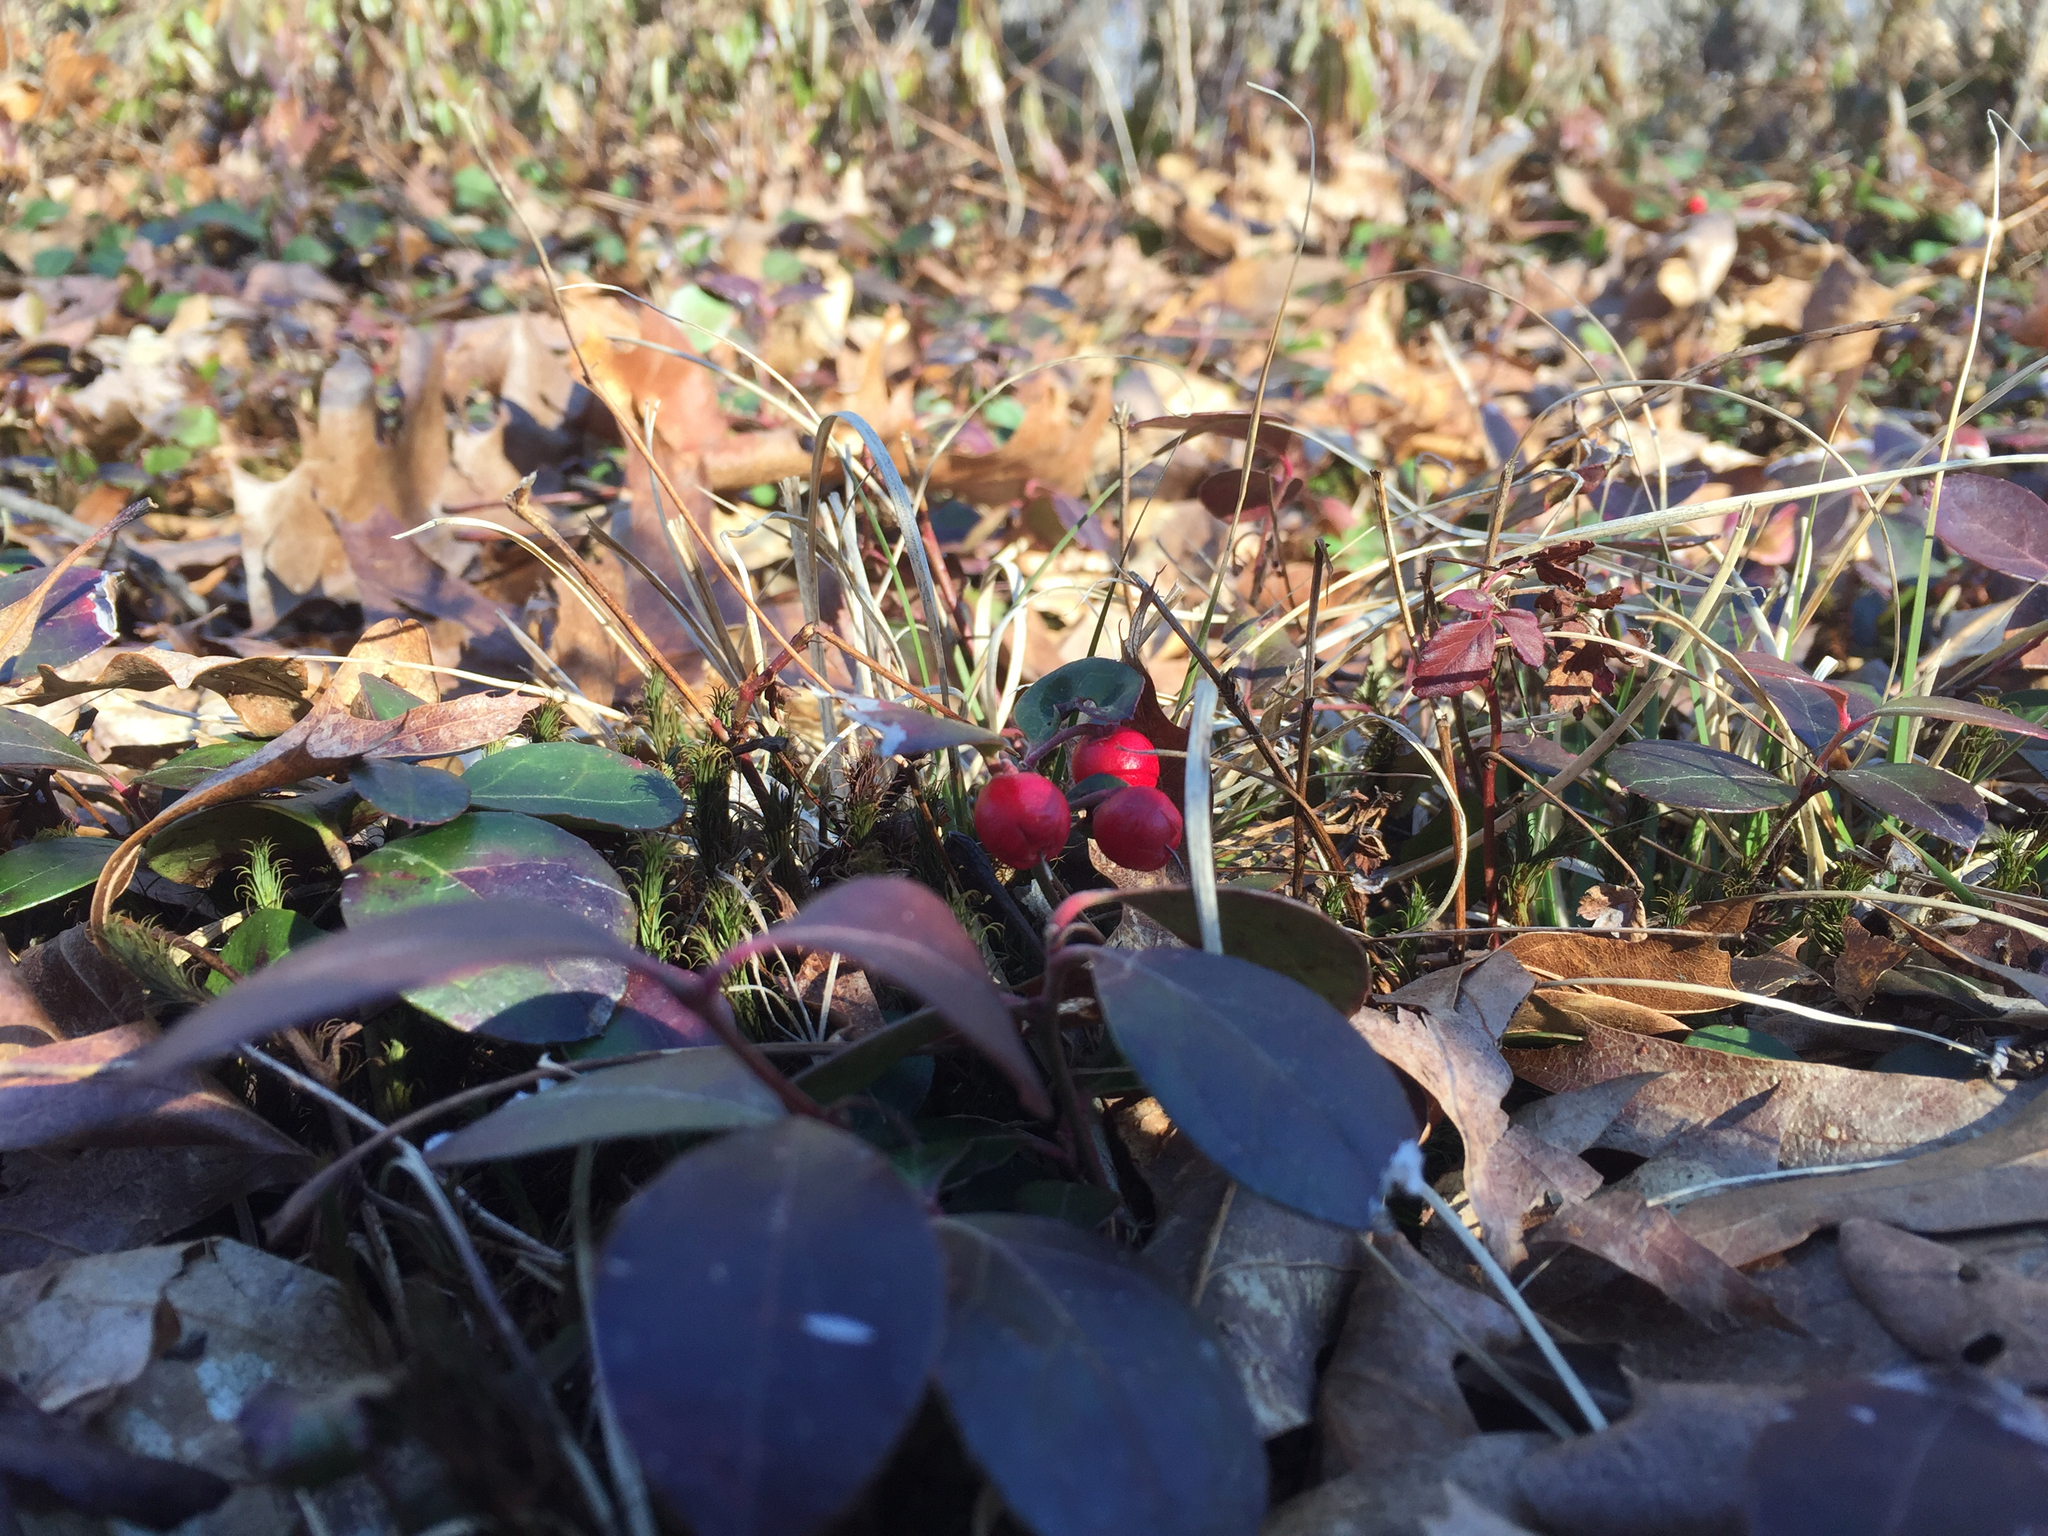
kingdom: Plantae
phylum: Tracheophyta
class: Magnoliopsida
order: Ericales
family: Ericaceae
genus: Gaultheria
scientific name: Gaultheria procumbens
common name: Checkerberry
